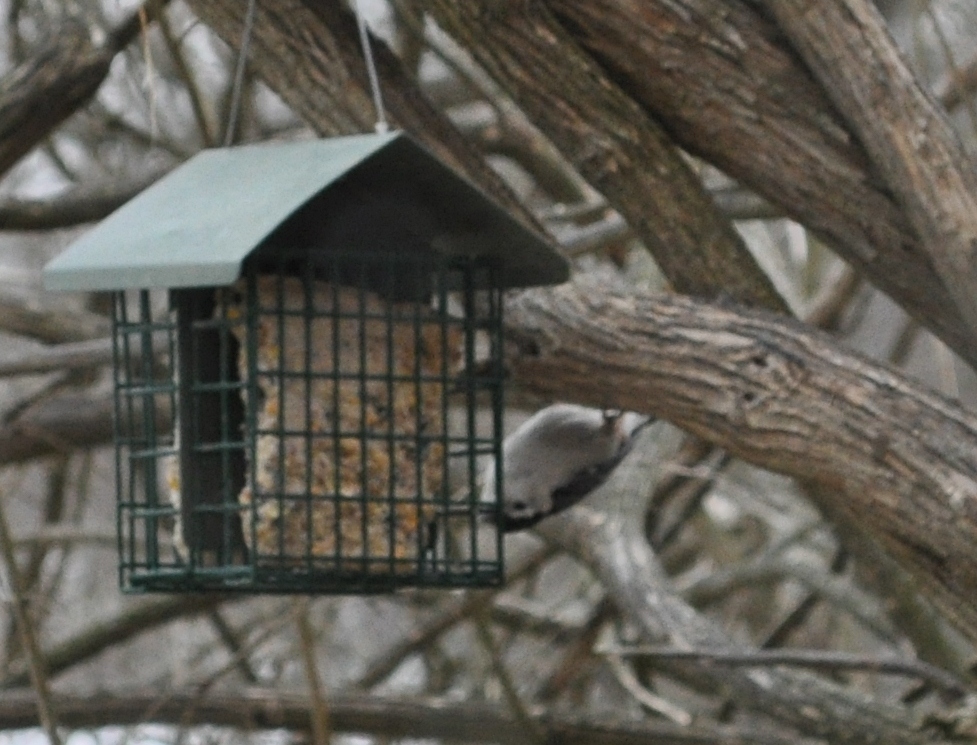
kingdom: Animalia
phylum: Chordata
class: Aves
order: Passeriformes
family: Sittidae
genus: Sitta
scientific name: Sitta carolinensis
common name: White-breasted nuthatch
